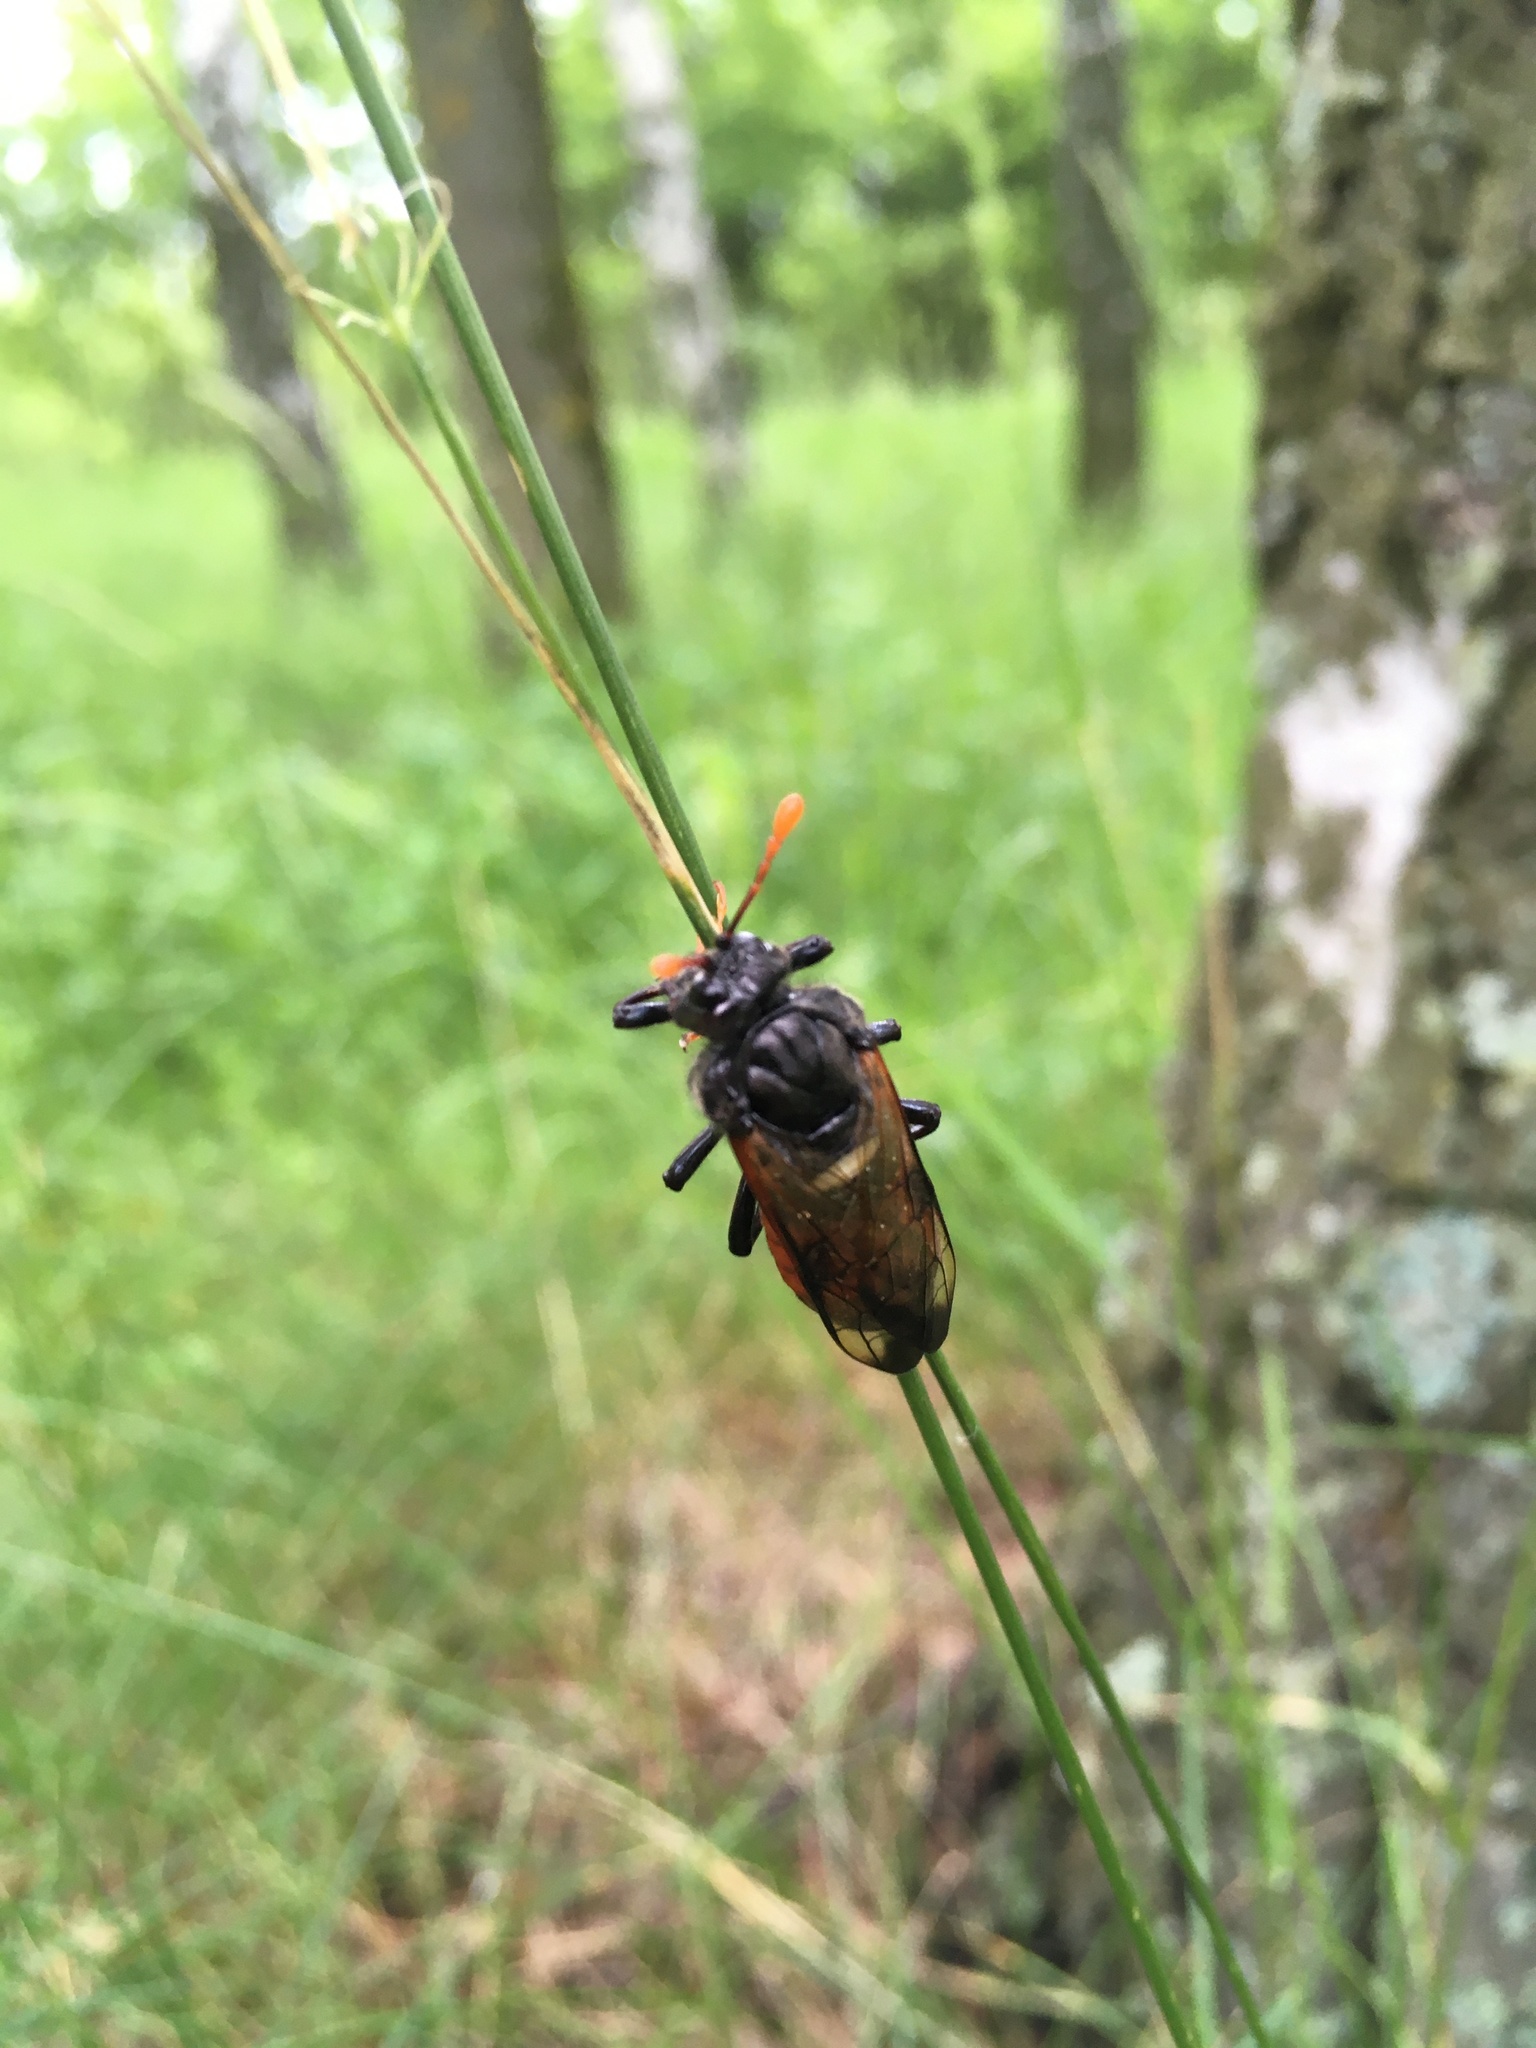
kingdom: Animalia
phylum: Arthropoda
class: Insecta
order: Hymenoptera
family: Cimbicidae
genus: Cimbex
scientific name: Cimbex femoratus
